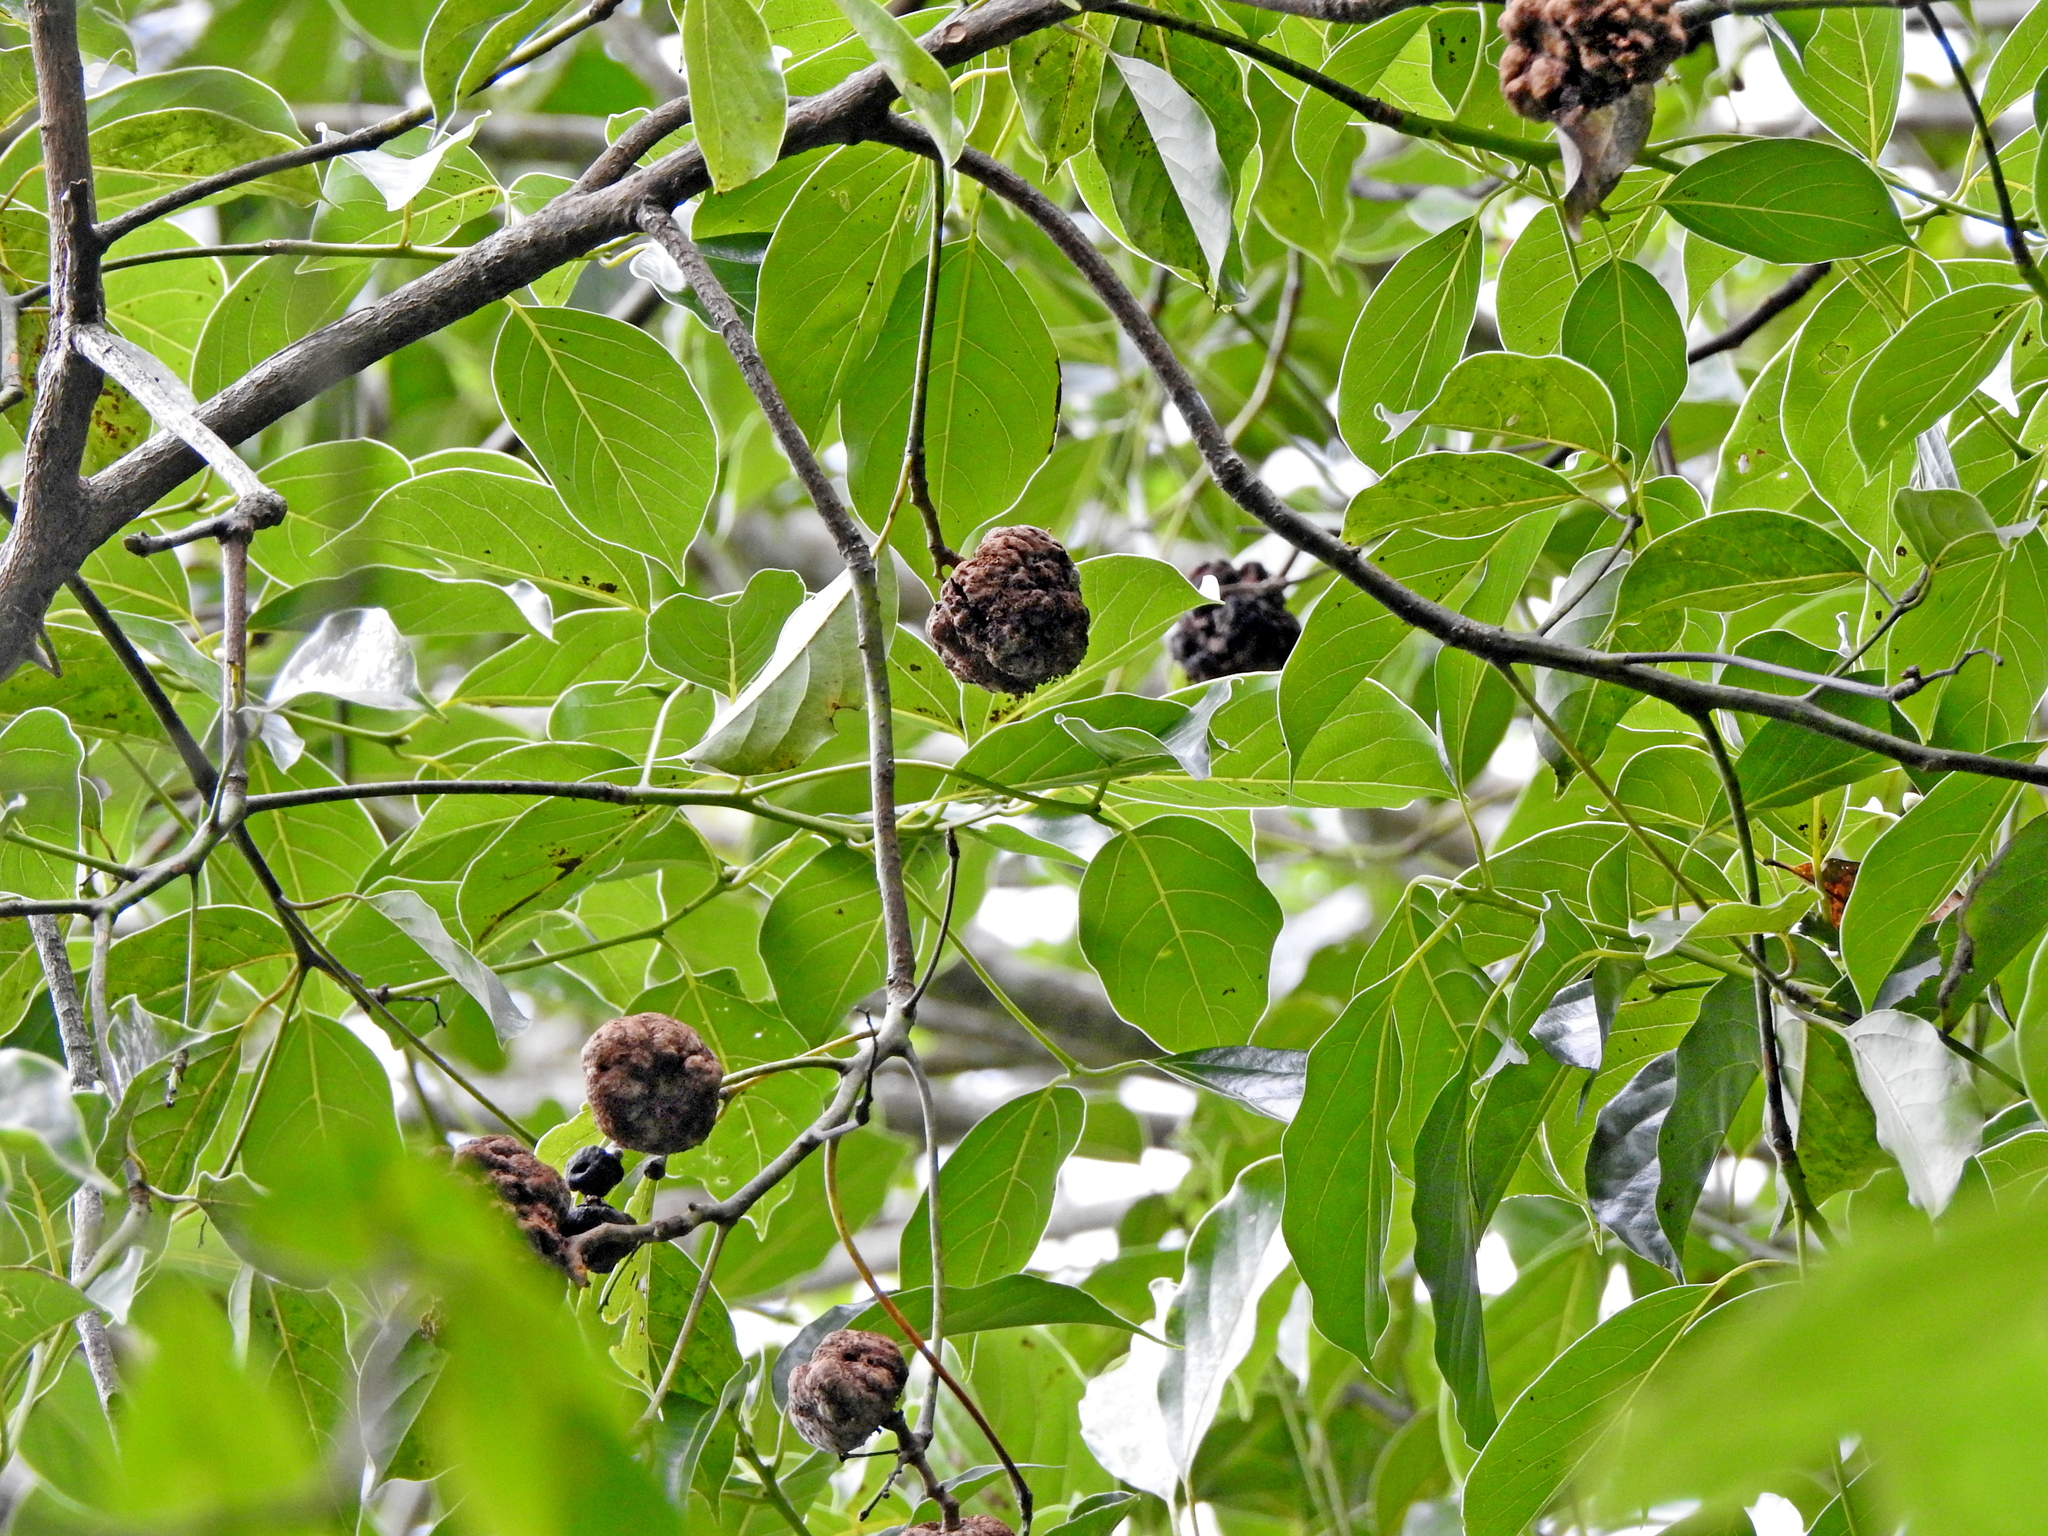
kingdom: Plantae
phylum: Tracheophyta
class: Magnoliopsida
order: Laurales
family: Lauraceae
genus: Cinnamomum
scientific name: Cinnamomum micranthum
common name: Chinese-sassafras
